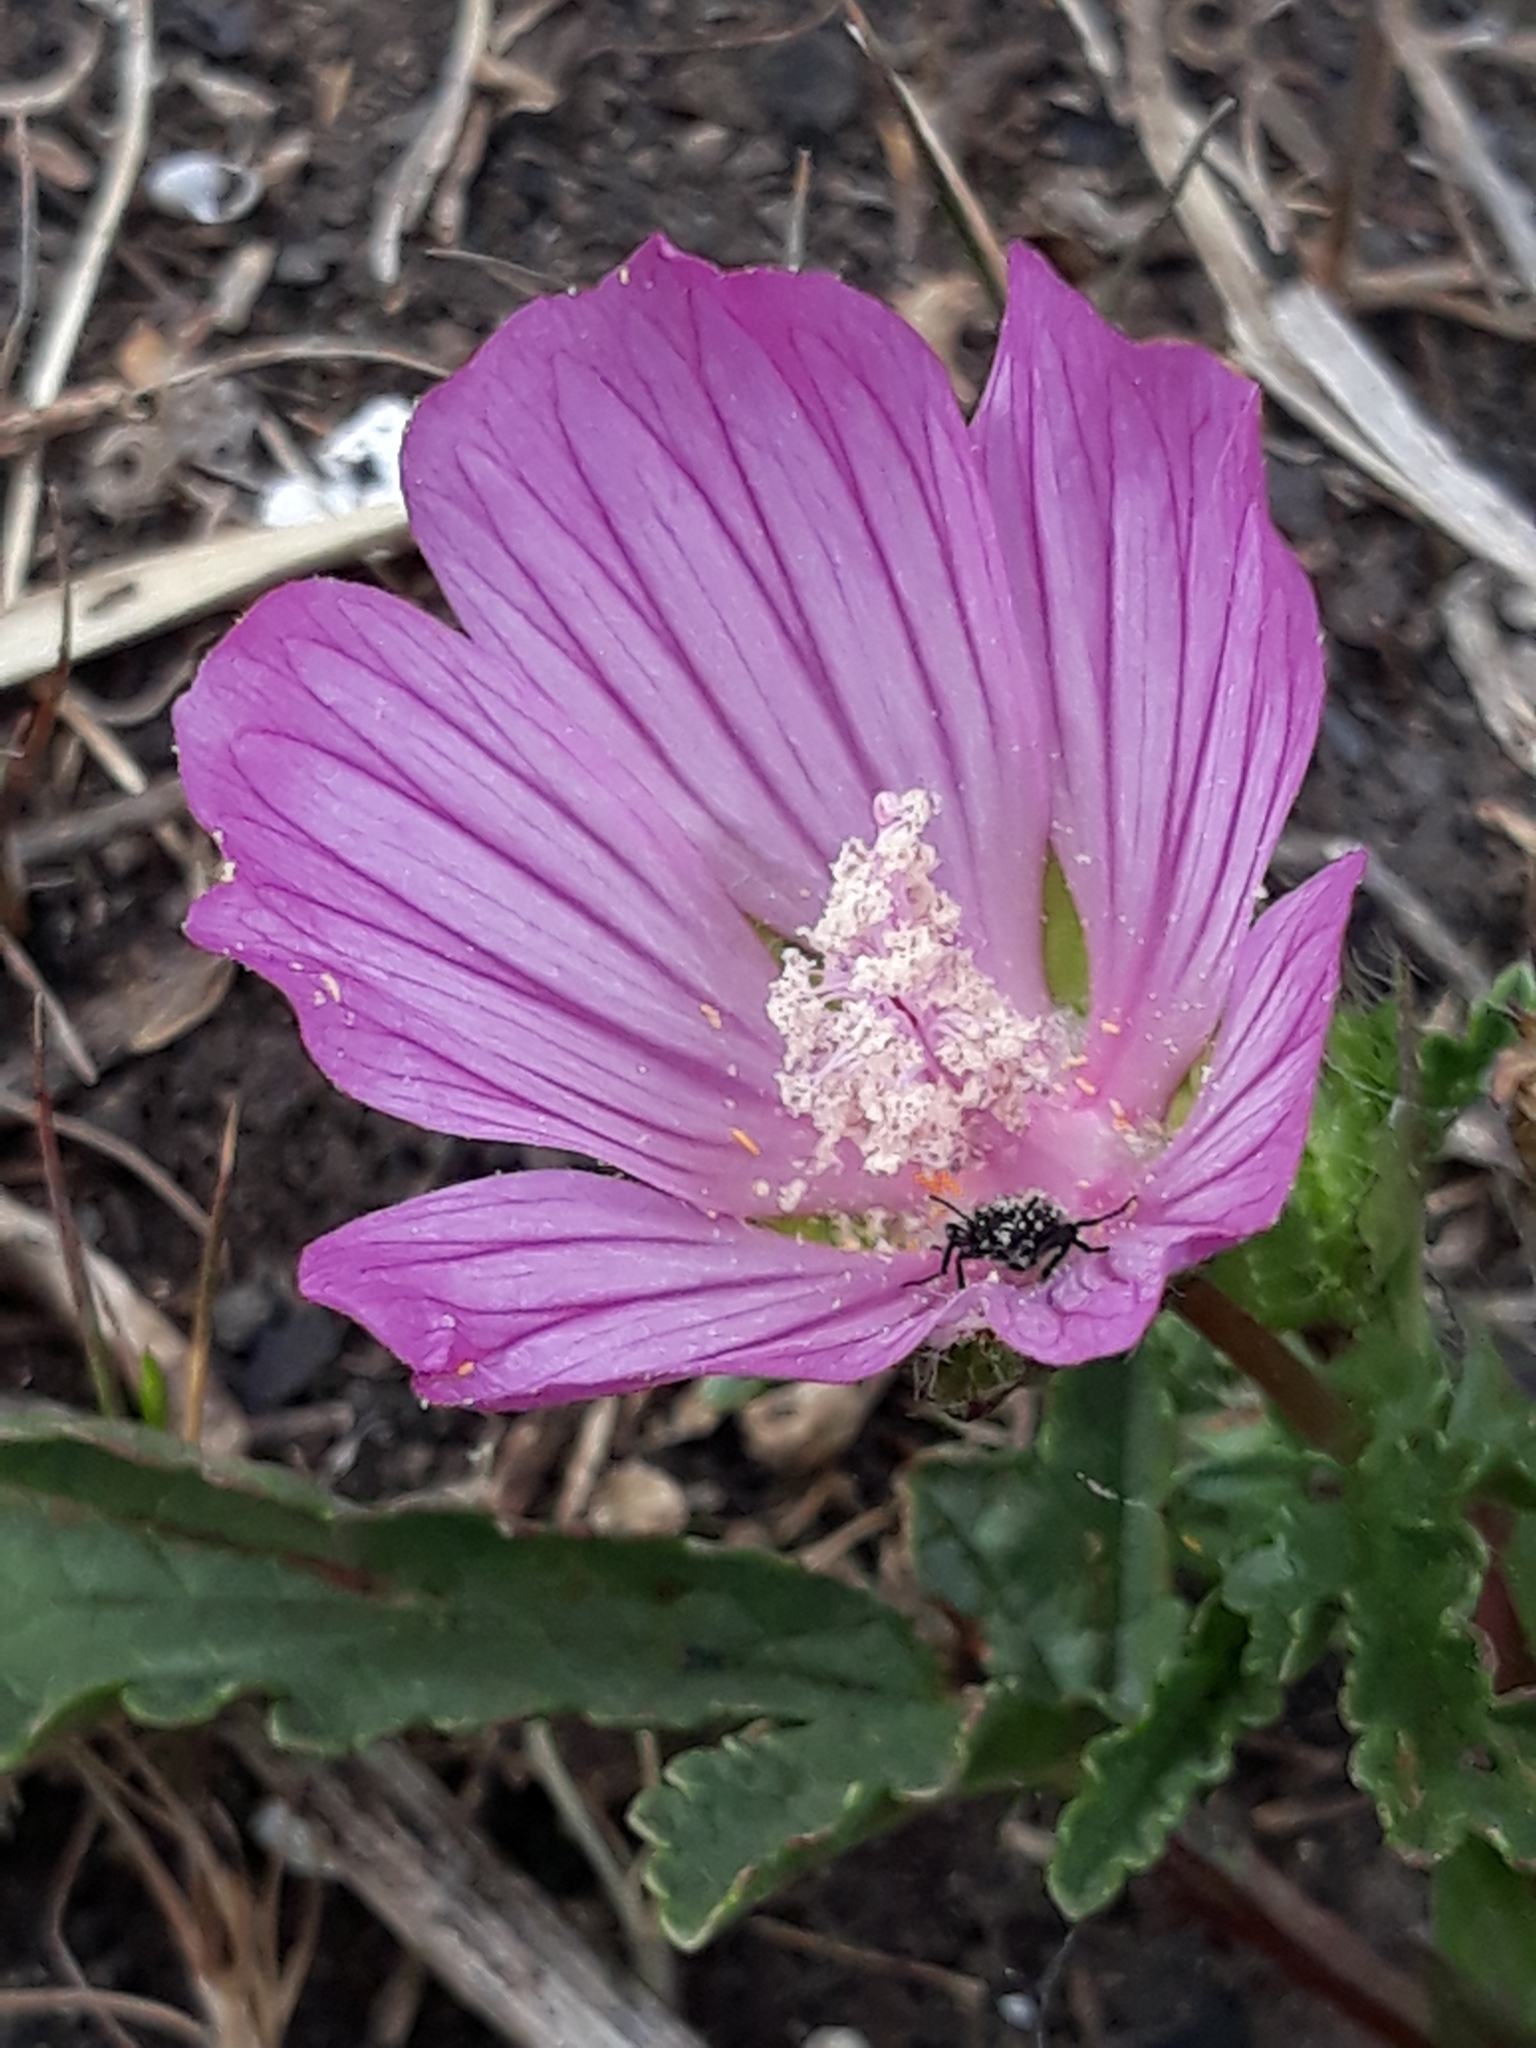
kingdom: Plantae
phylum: Tracheophyta
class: Magnoliopsida
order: Malvales
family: Malvaceae
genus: Malope
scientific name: Malope malacoides
